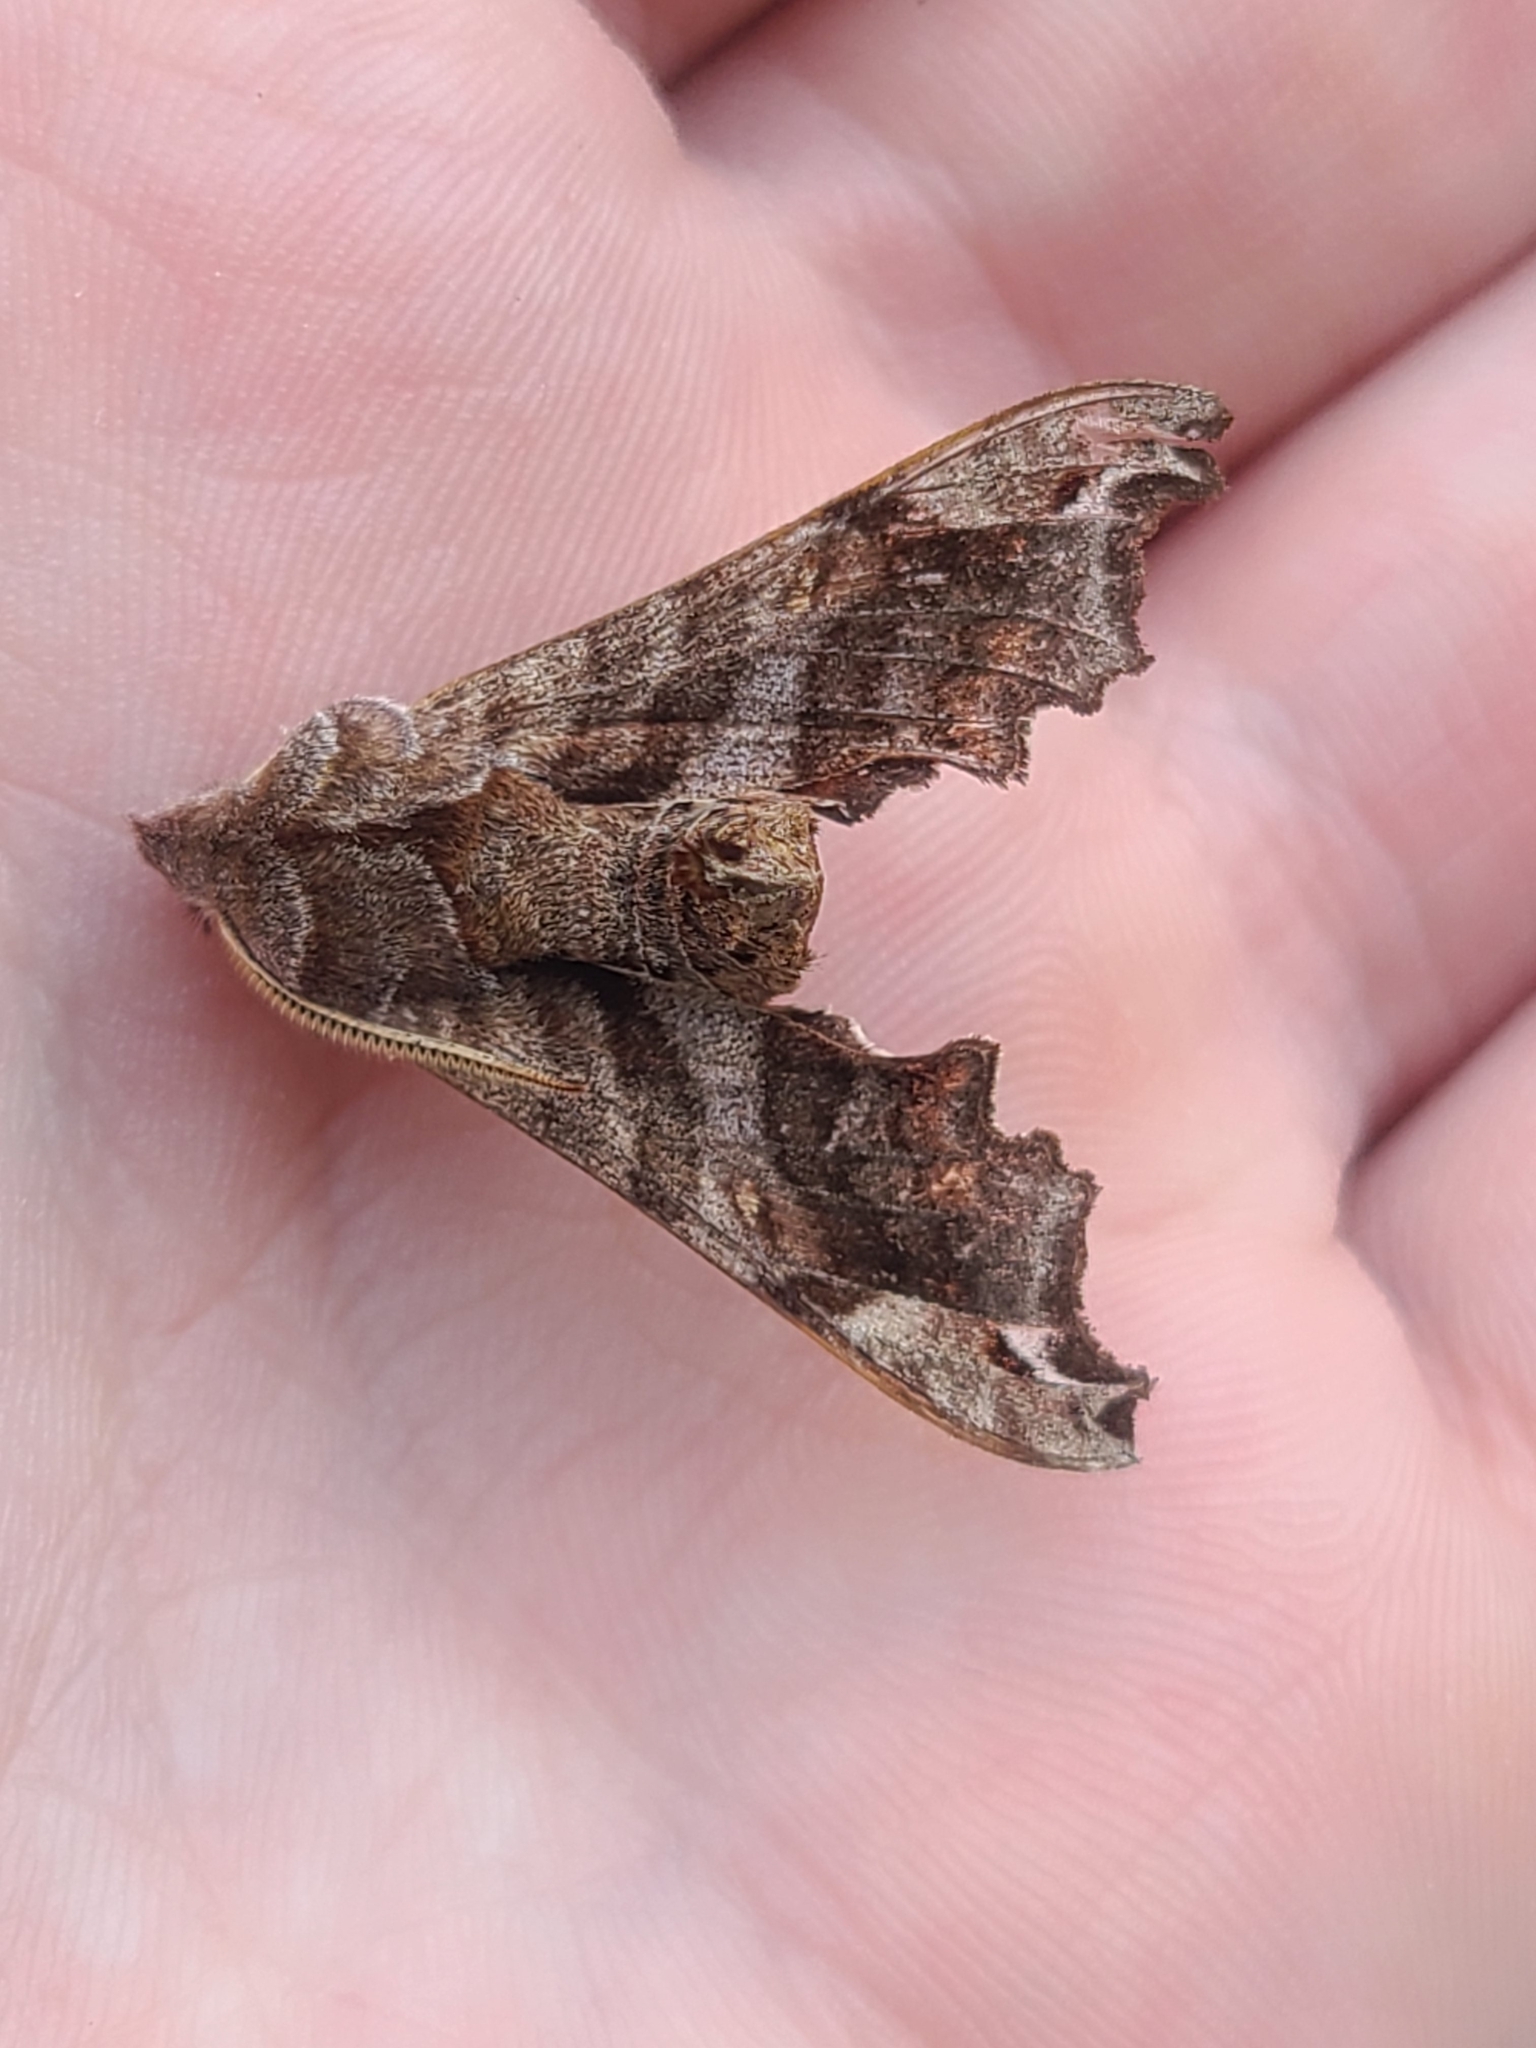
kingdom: Animalia
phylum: Arthropoda
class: Insecta
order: Lepidoptera
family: Sphingidae
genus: Deidamia
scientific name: Deidamia inscriptum
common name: Lettered sphinx
